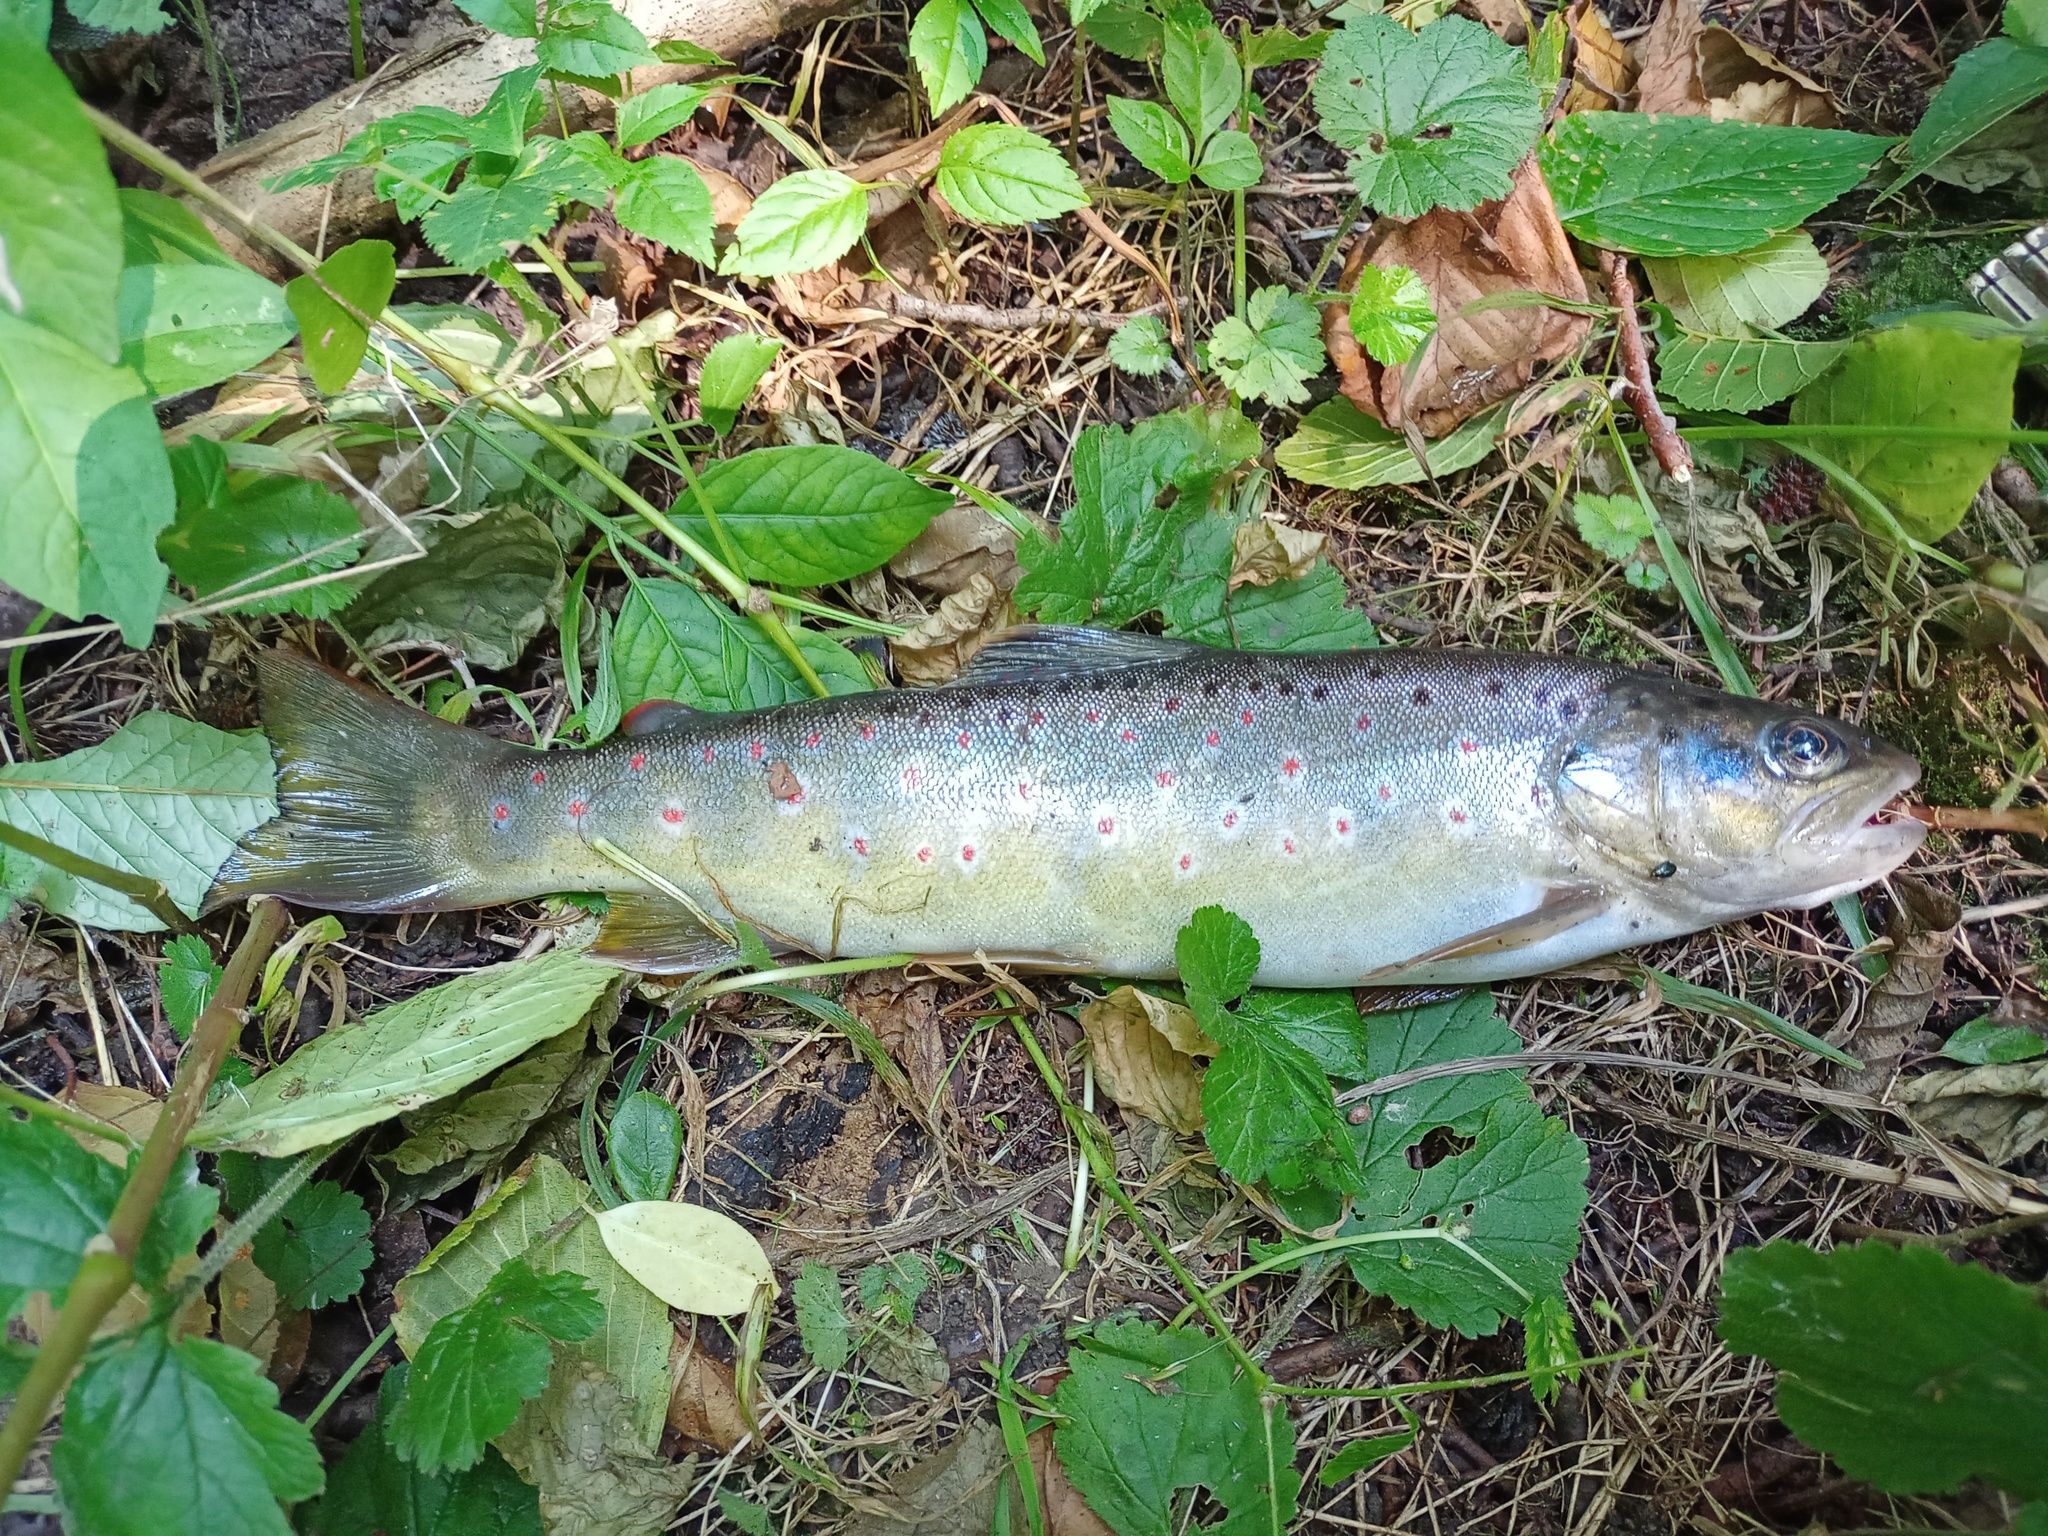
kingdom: Animalia
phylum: Chordata
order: Salmoniformes
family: Salmonidae
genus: Salmo
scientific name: Salmo trutta
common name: Brown trout
